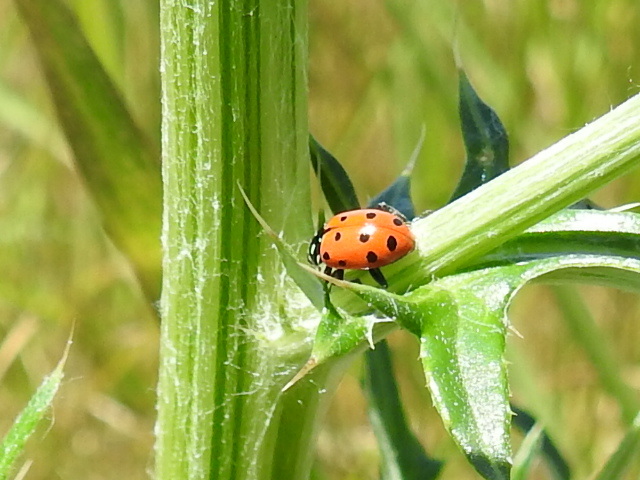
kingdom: Animalia
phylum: Arthropoda
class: Insecta
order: Coleoptera
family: Coccinellidae
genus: Hippodamia
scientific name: Hippodamia convergens
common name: Convergent lady beetle
